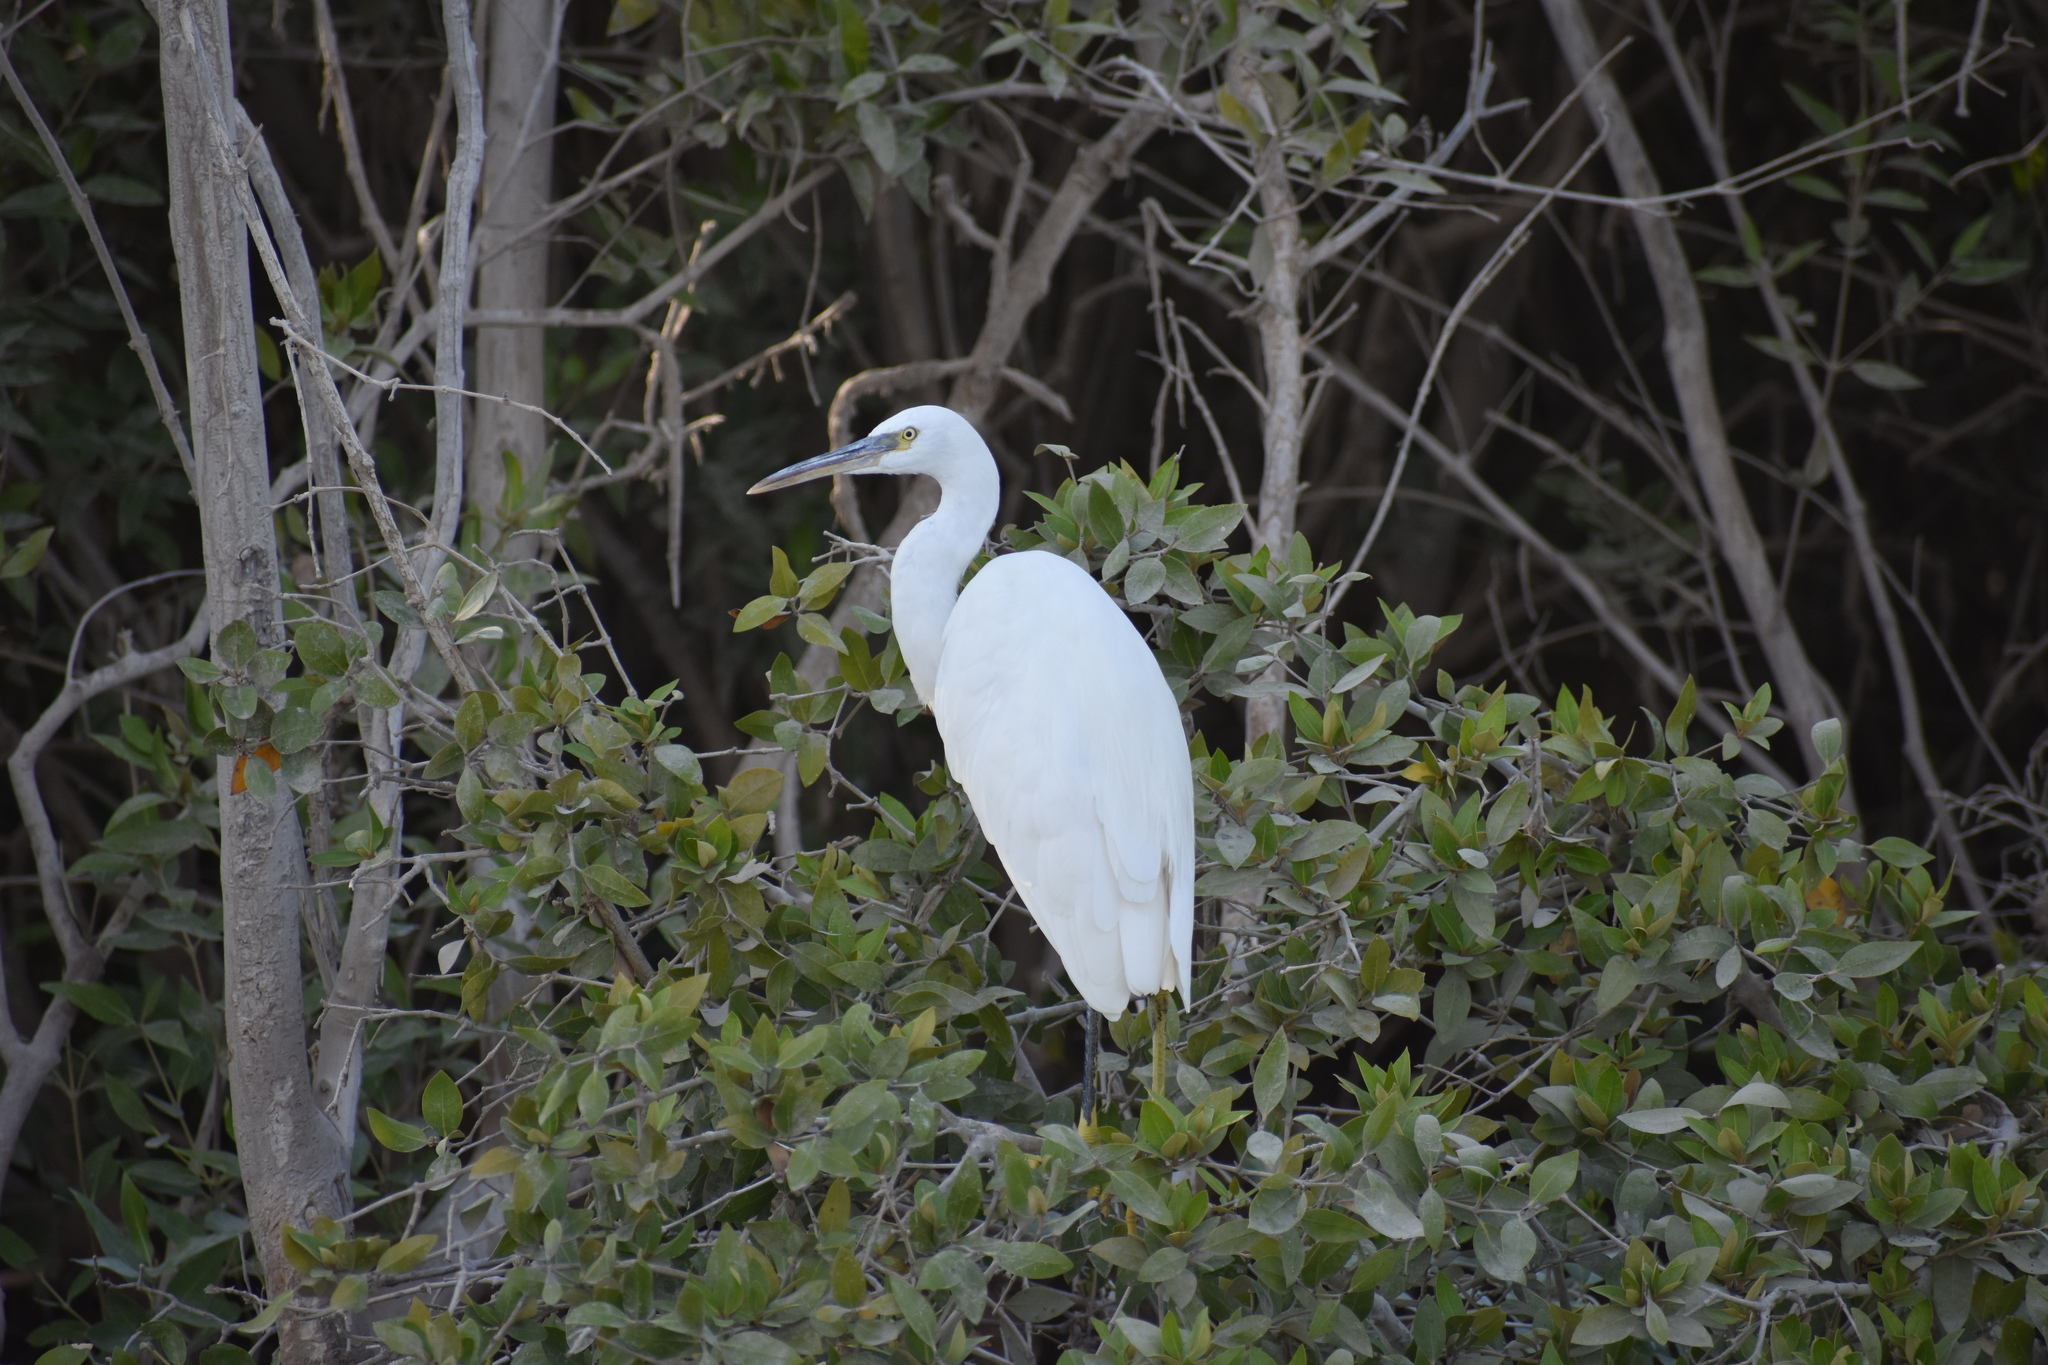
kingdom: Animalia
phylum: Chordata
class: Aves
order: Pelecaniformes
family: Ardeidae
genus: Egretta
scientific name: Egretta gularis
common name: Western reef-heron
